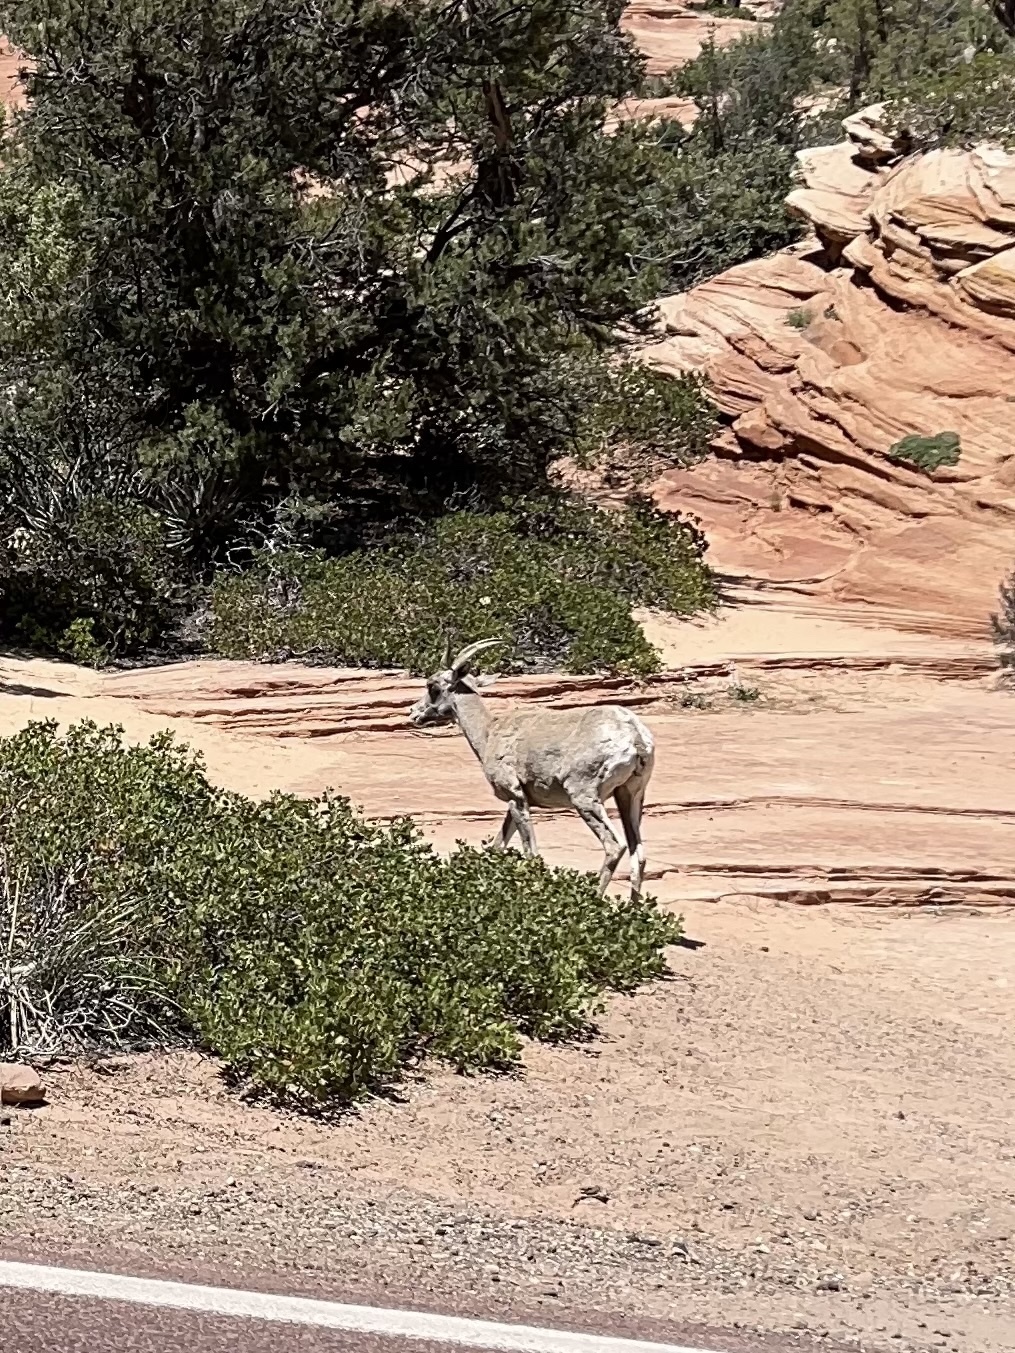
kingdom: Animalia
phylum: Chordata
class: Mammalia
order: Artiodactyla
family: Bovidae
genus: Ovis
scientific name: Ovis canadensis
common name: Bighorn sheep
